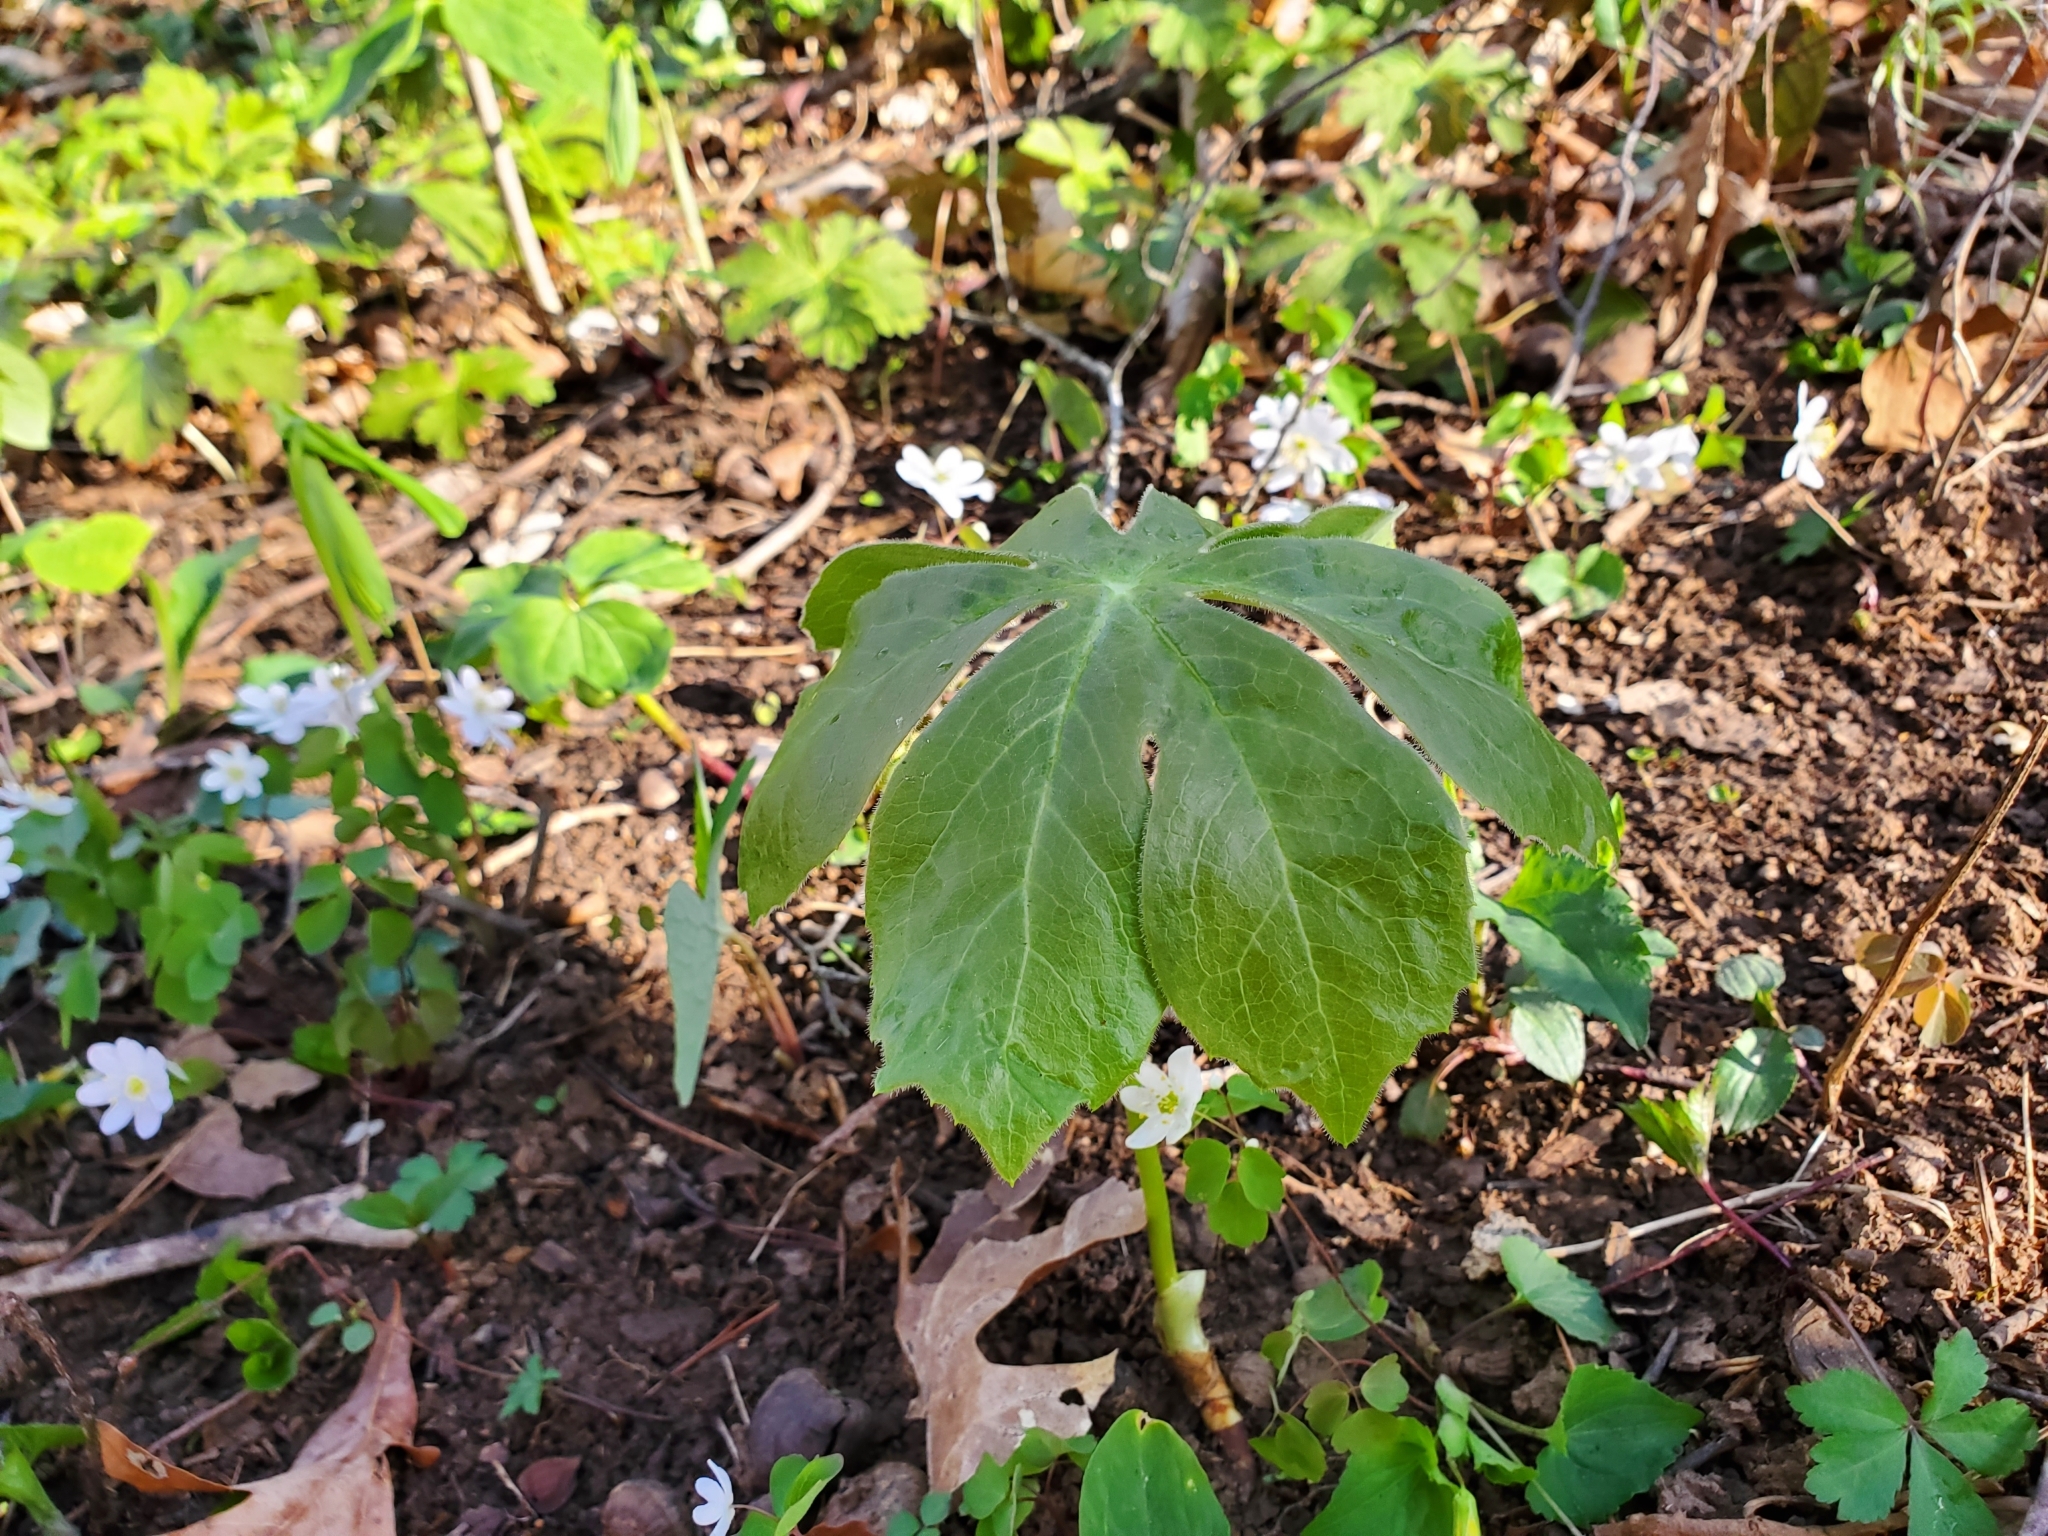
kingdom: Plantae
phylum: Tracheophyta
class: Magnoliopsida
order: Ranunculales
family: Berberidaceae
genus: Podophyllum
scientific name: Podophyllum peltatum
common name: Wild mandrake
